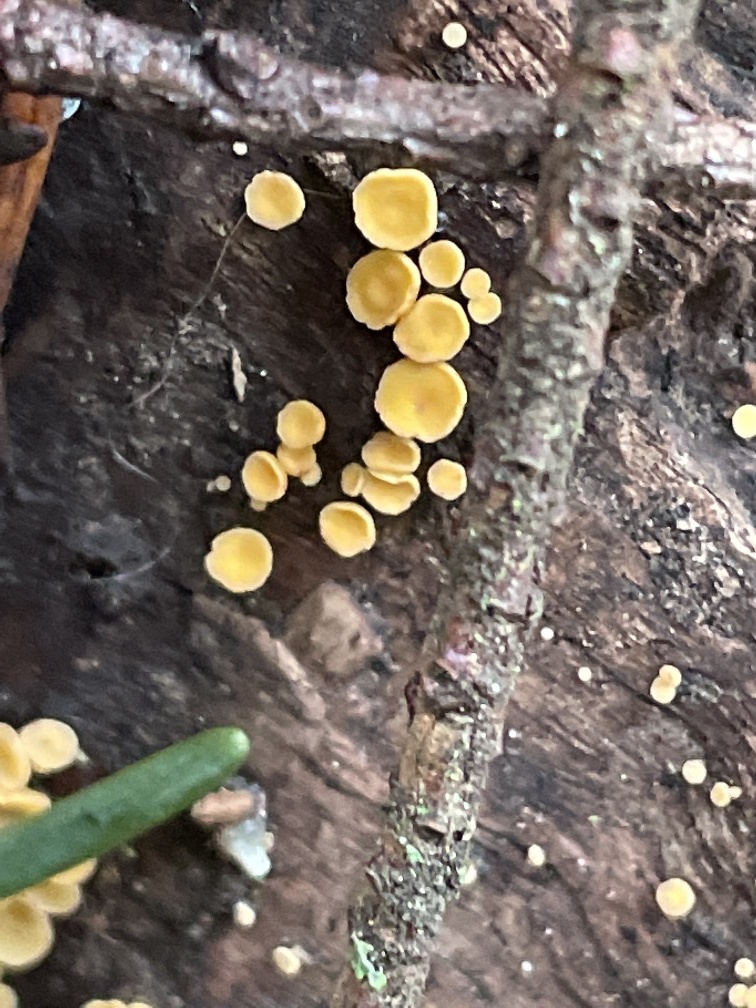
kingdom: Fungi
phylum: Ascomycota
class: Leotiomycetes
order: Helotiales
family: Pezizellaceae
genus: Calycina
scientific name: Calycina citrina
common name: Yellow fairy cups
